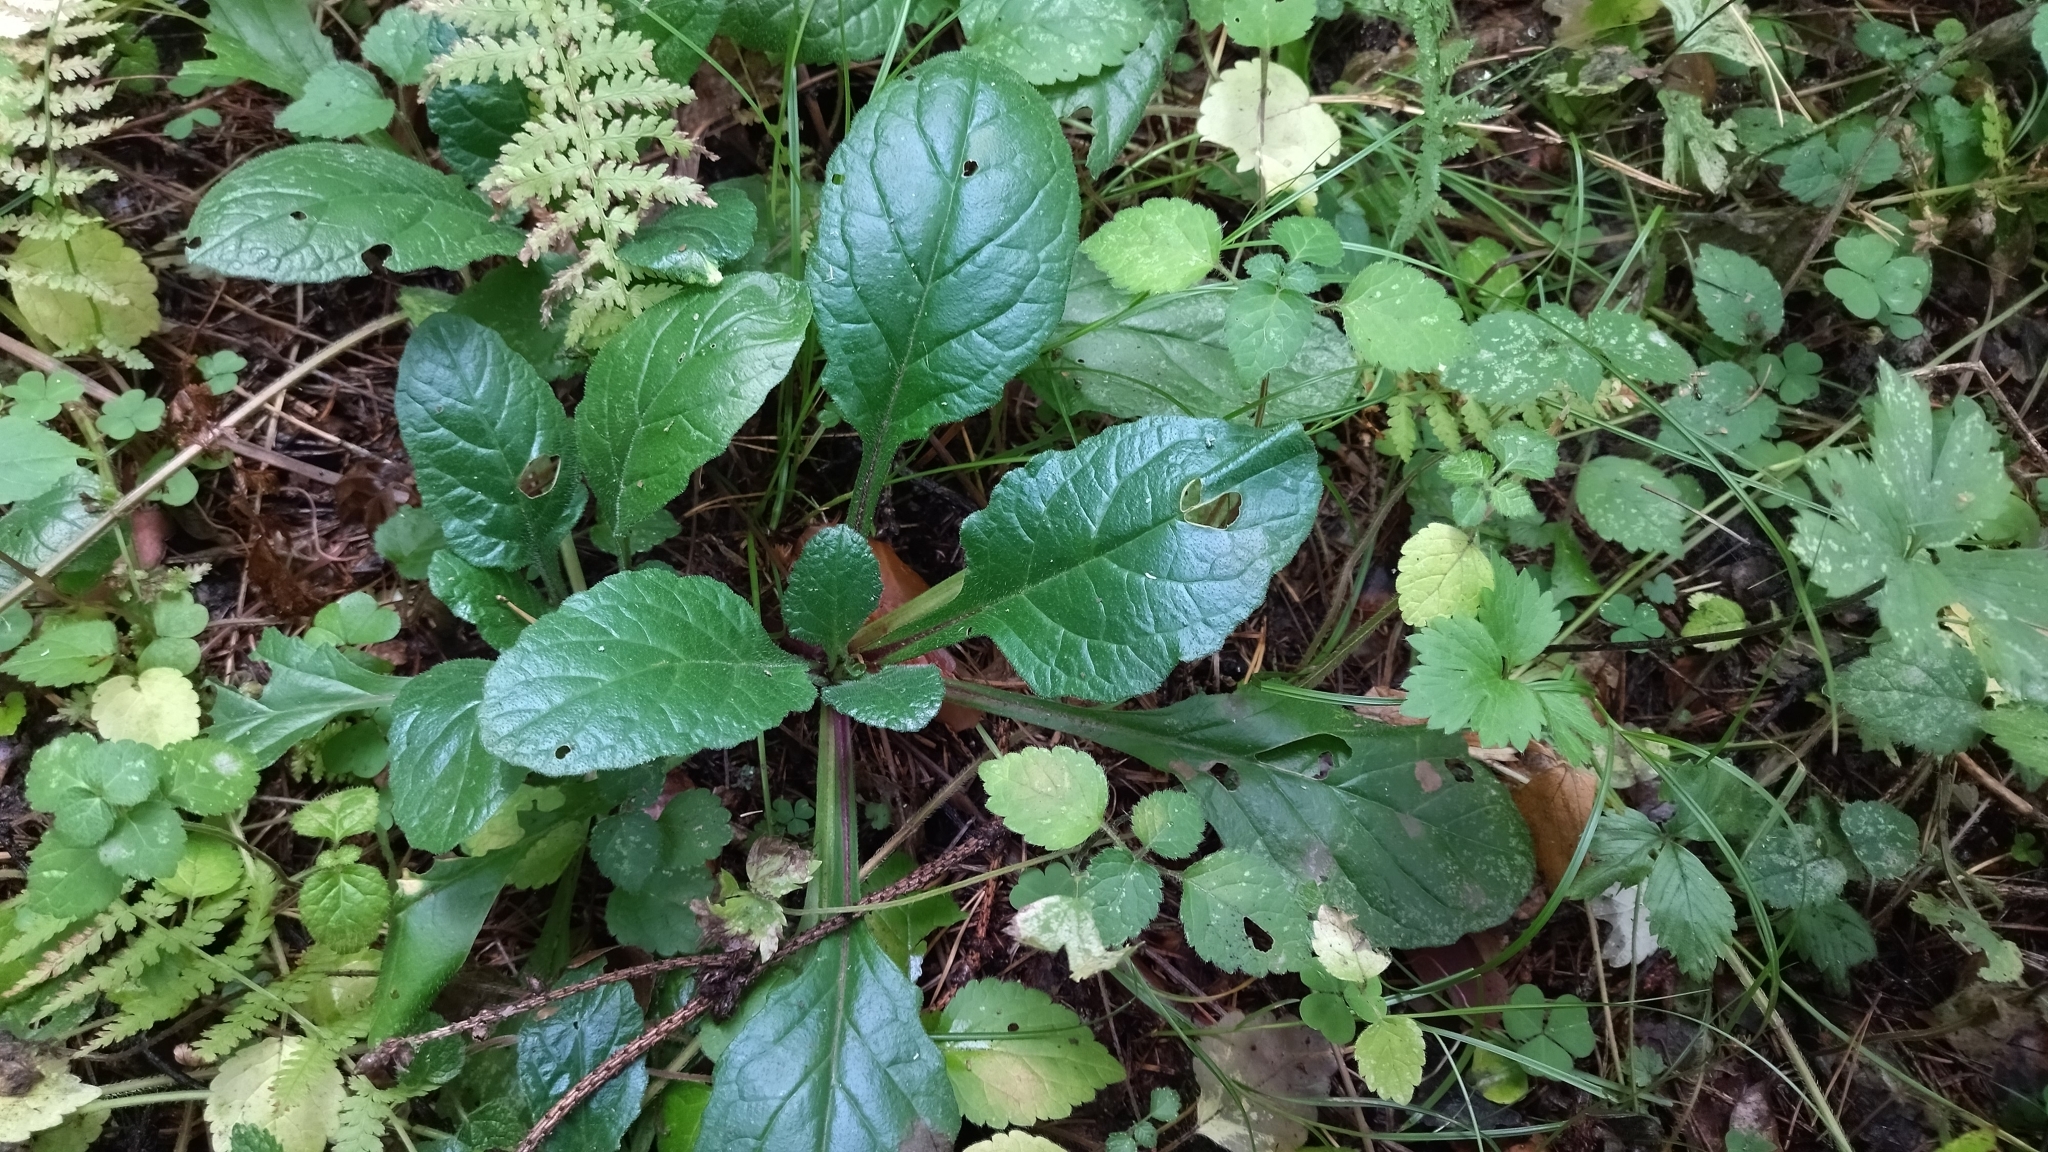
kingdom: Plantae
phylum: Tracheophyta
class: Magnoliopsida
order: Lamiales
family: Lamiaceae
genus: Ajuga
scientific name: Ajuga reptans
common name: Bugle
